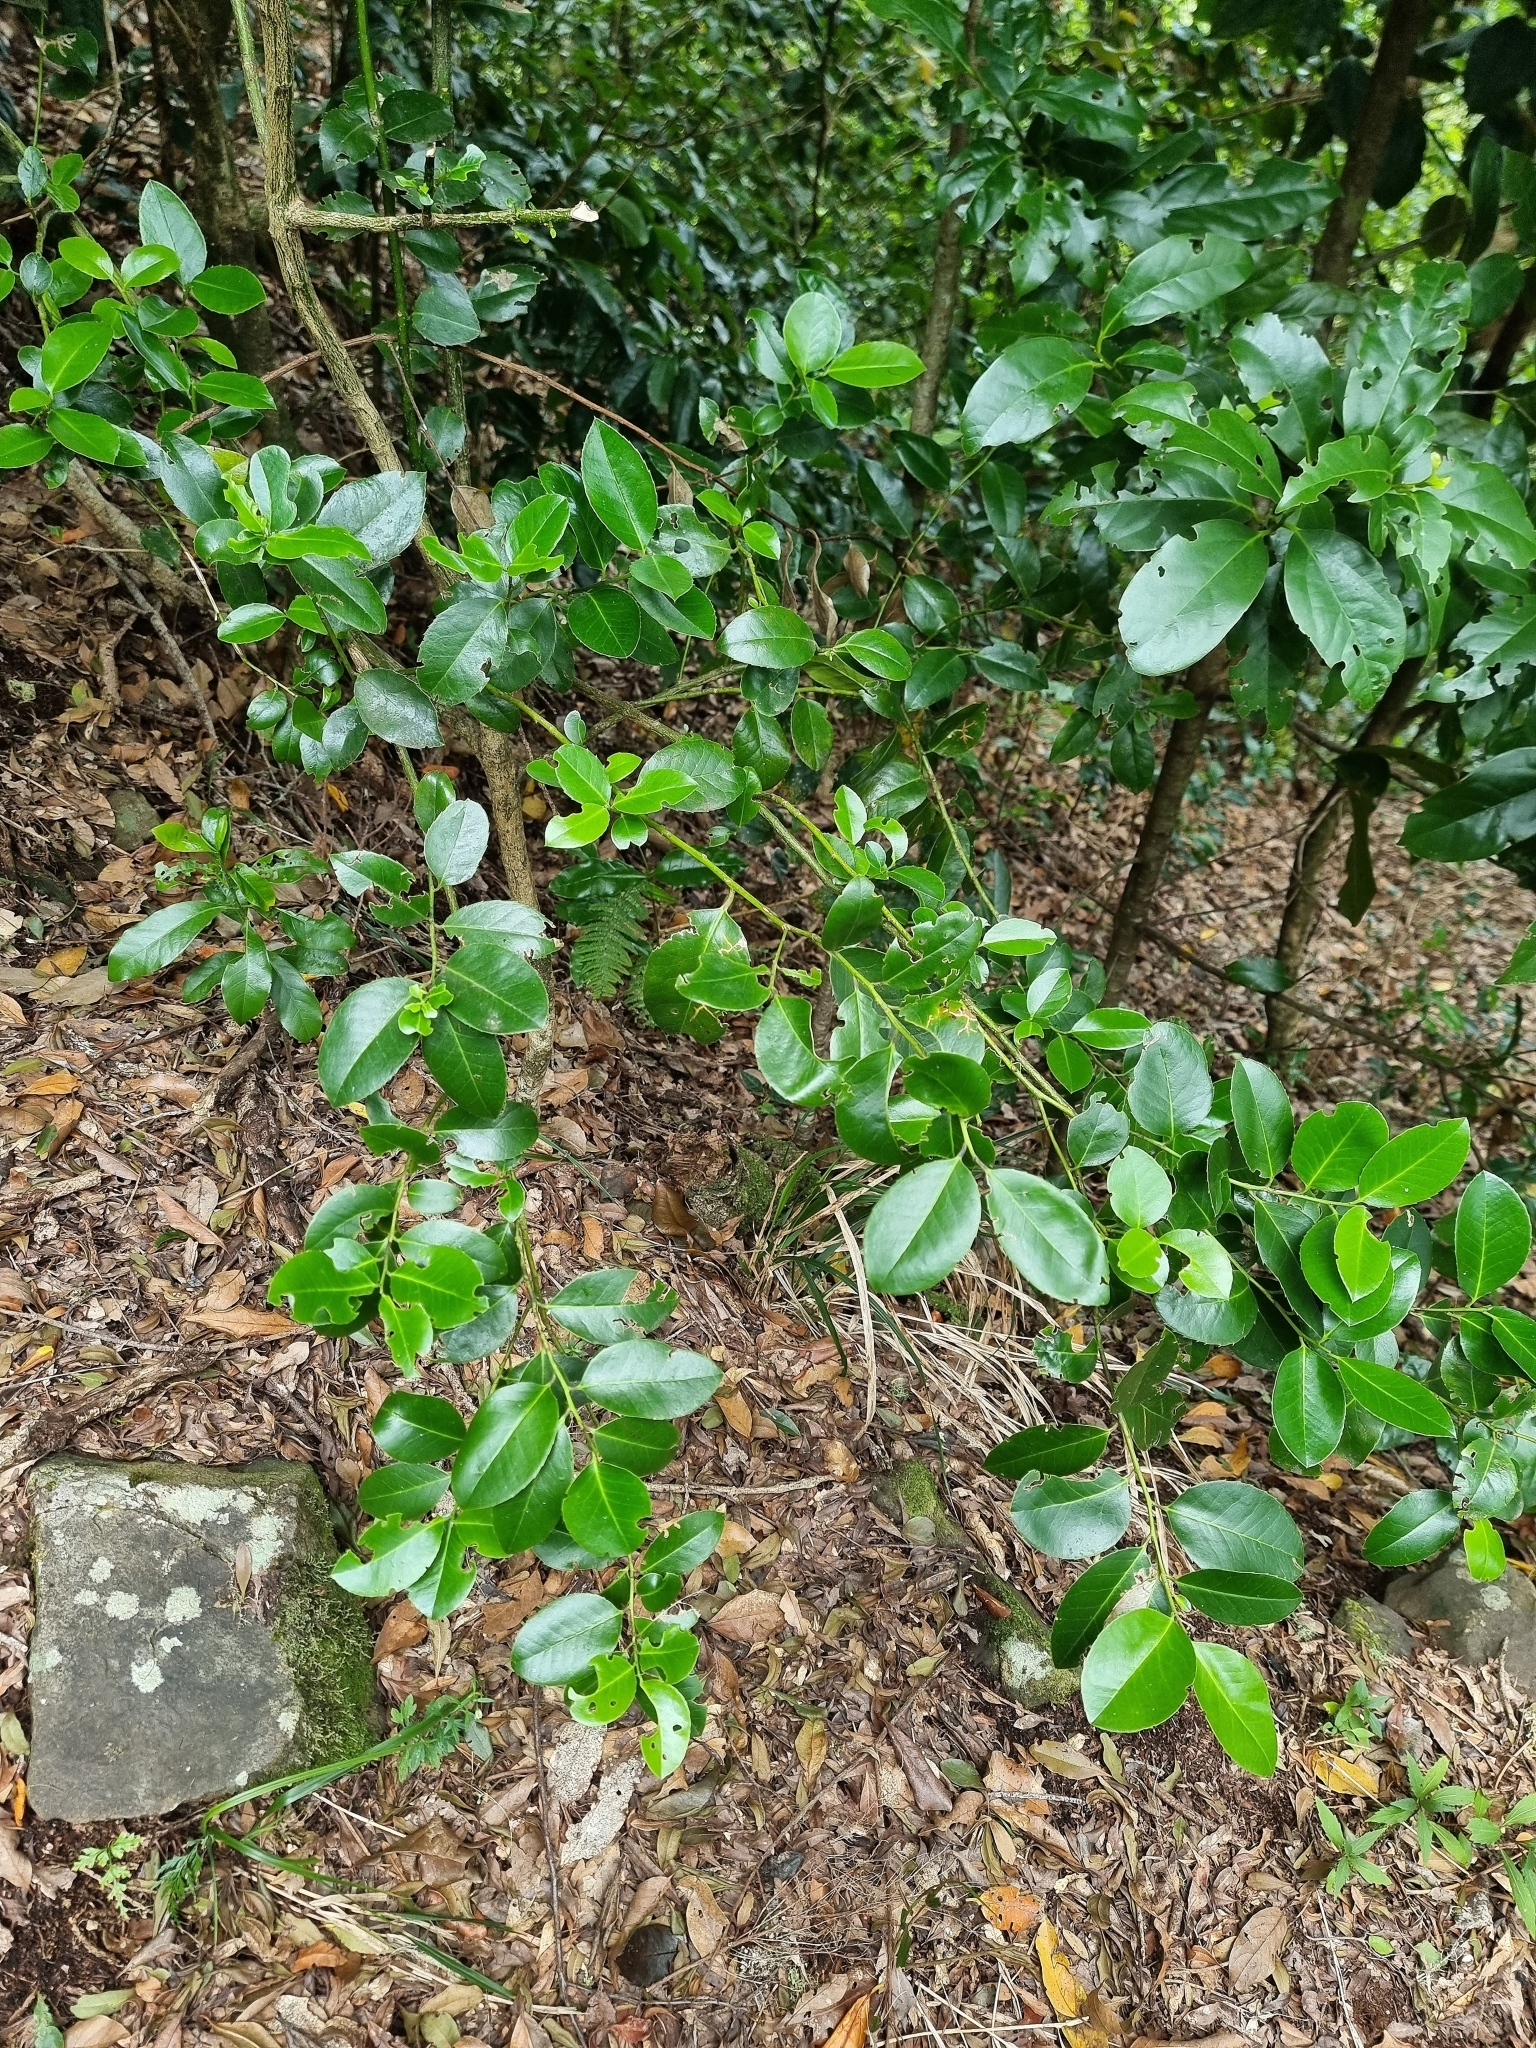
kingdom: Plantae
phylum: Tracheophyta
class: Magnoliopsida
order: Aquifoliales
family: Aquifoliaceae
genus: Ilex
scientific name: Ilex perado
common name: Madeira holly
